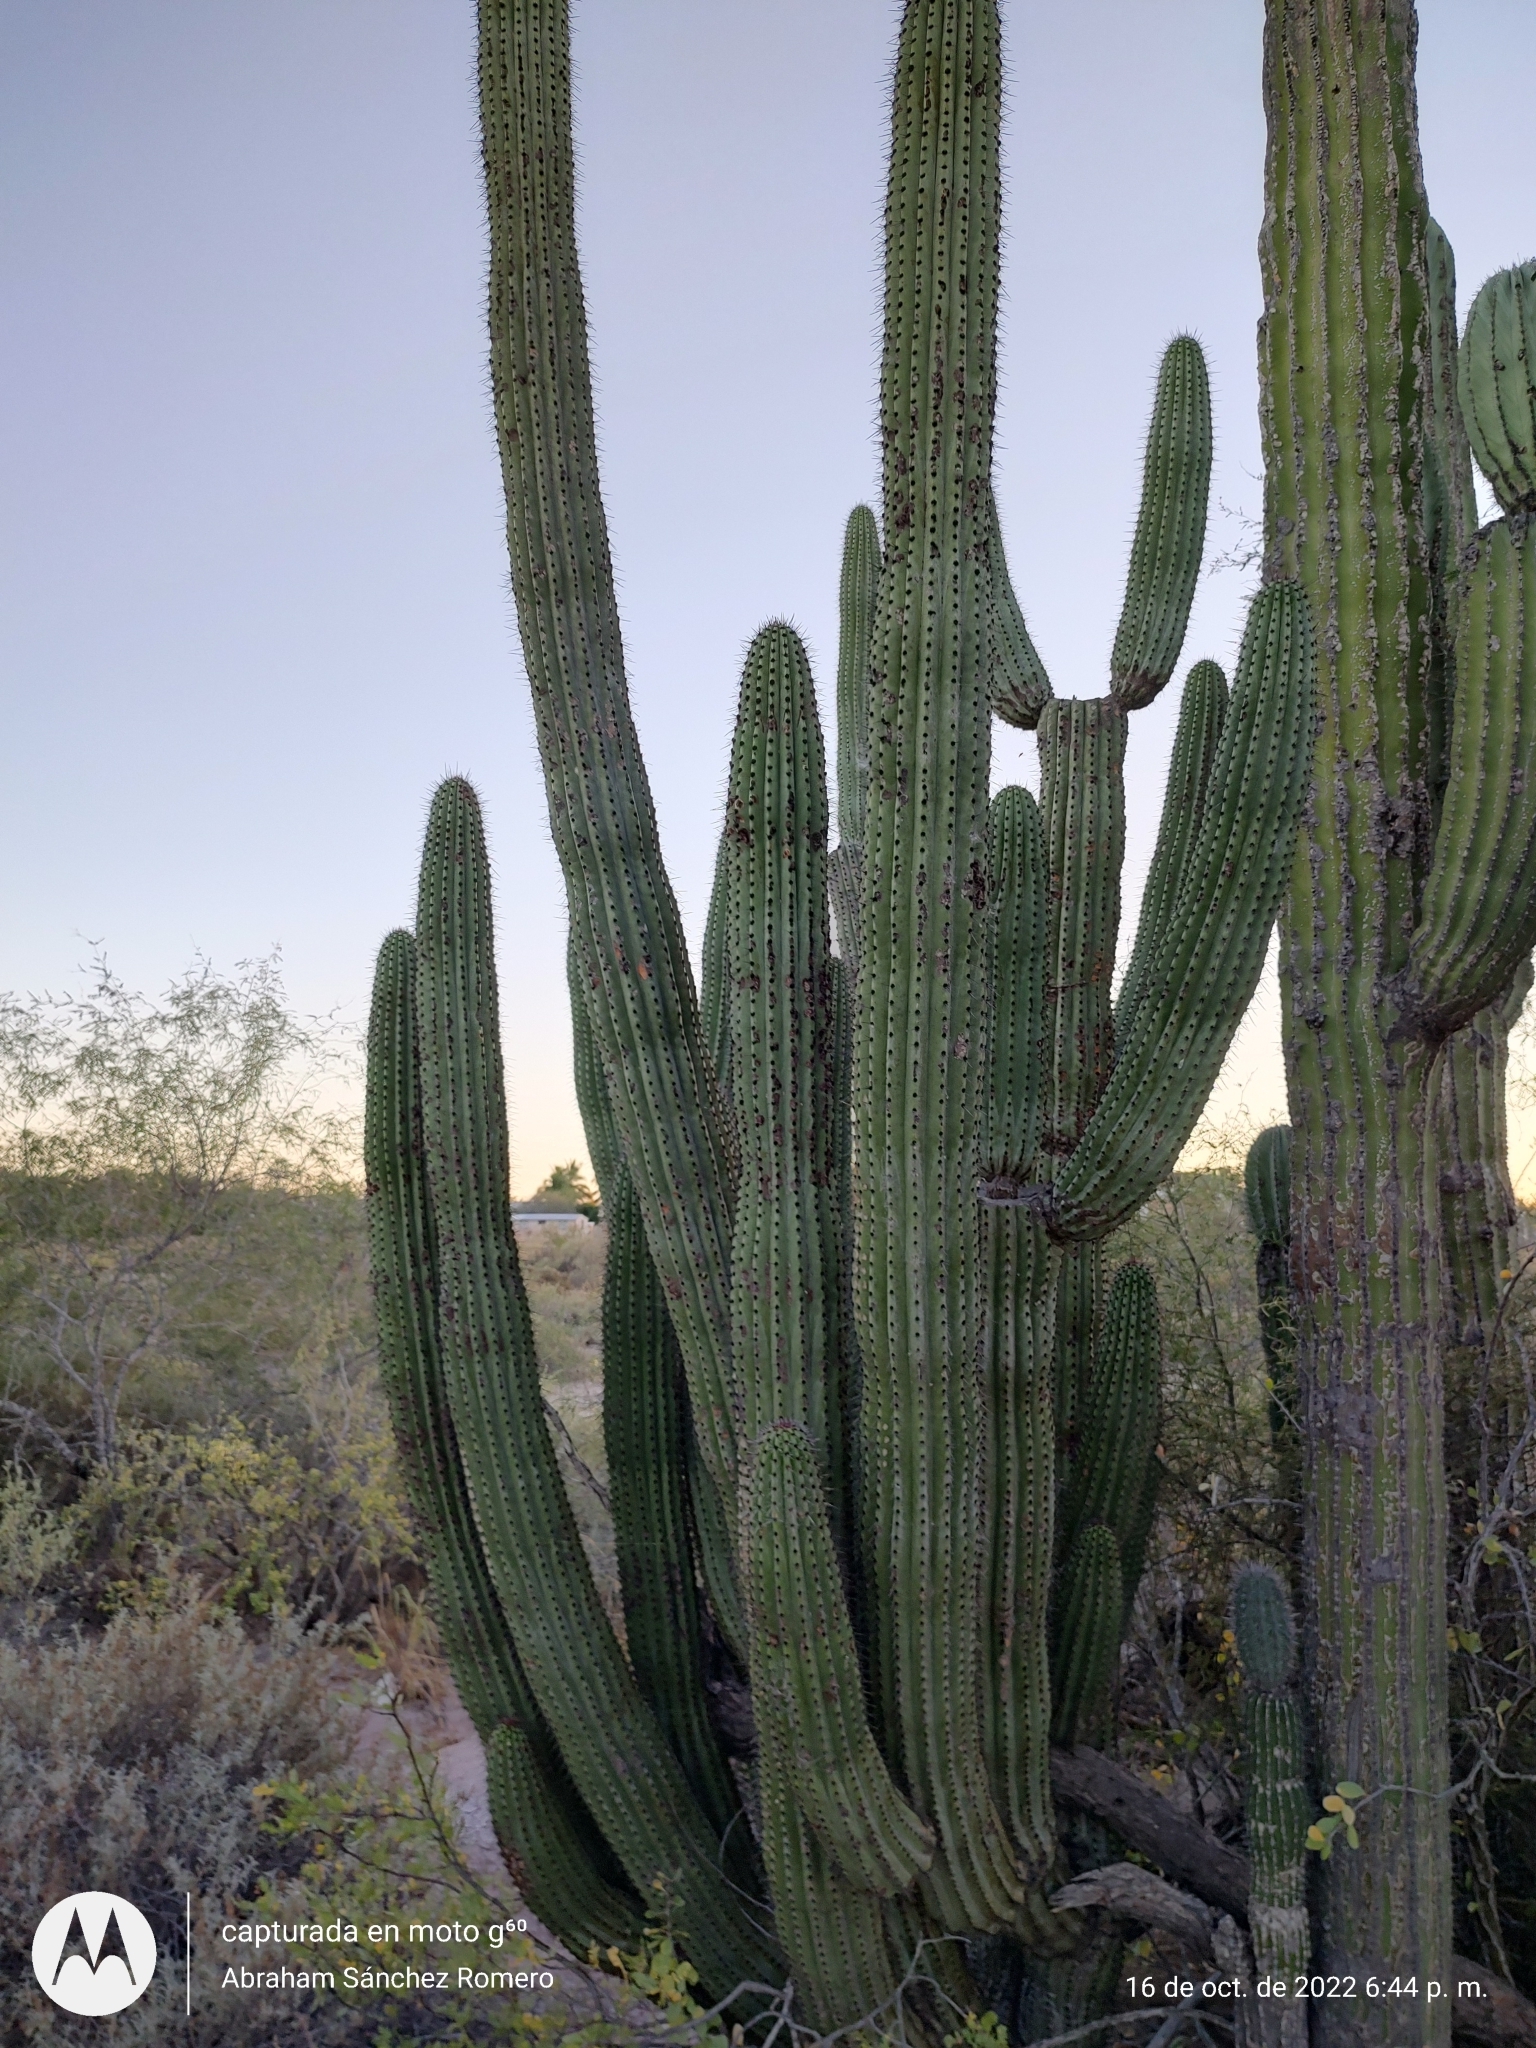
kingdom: Plantae
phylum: Tracheophyta
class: Magnoliopsida
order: Caryophyllales
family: Cactaceae
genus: Stenocereus
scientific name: Stenocereus thurberi
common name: Organ pipe cactus
